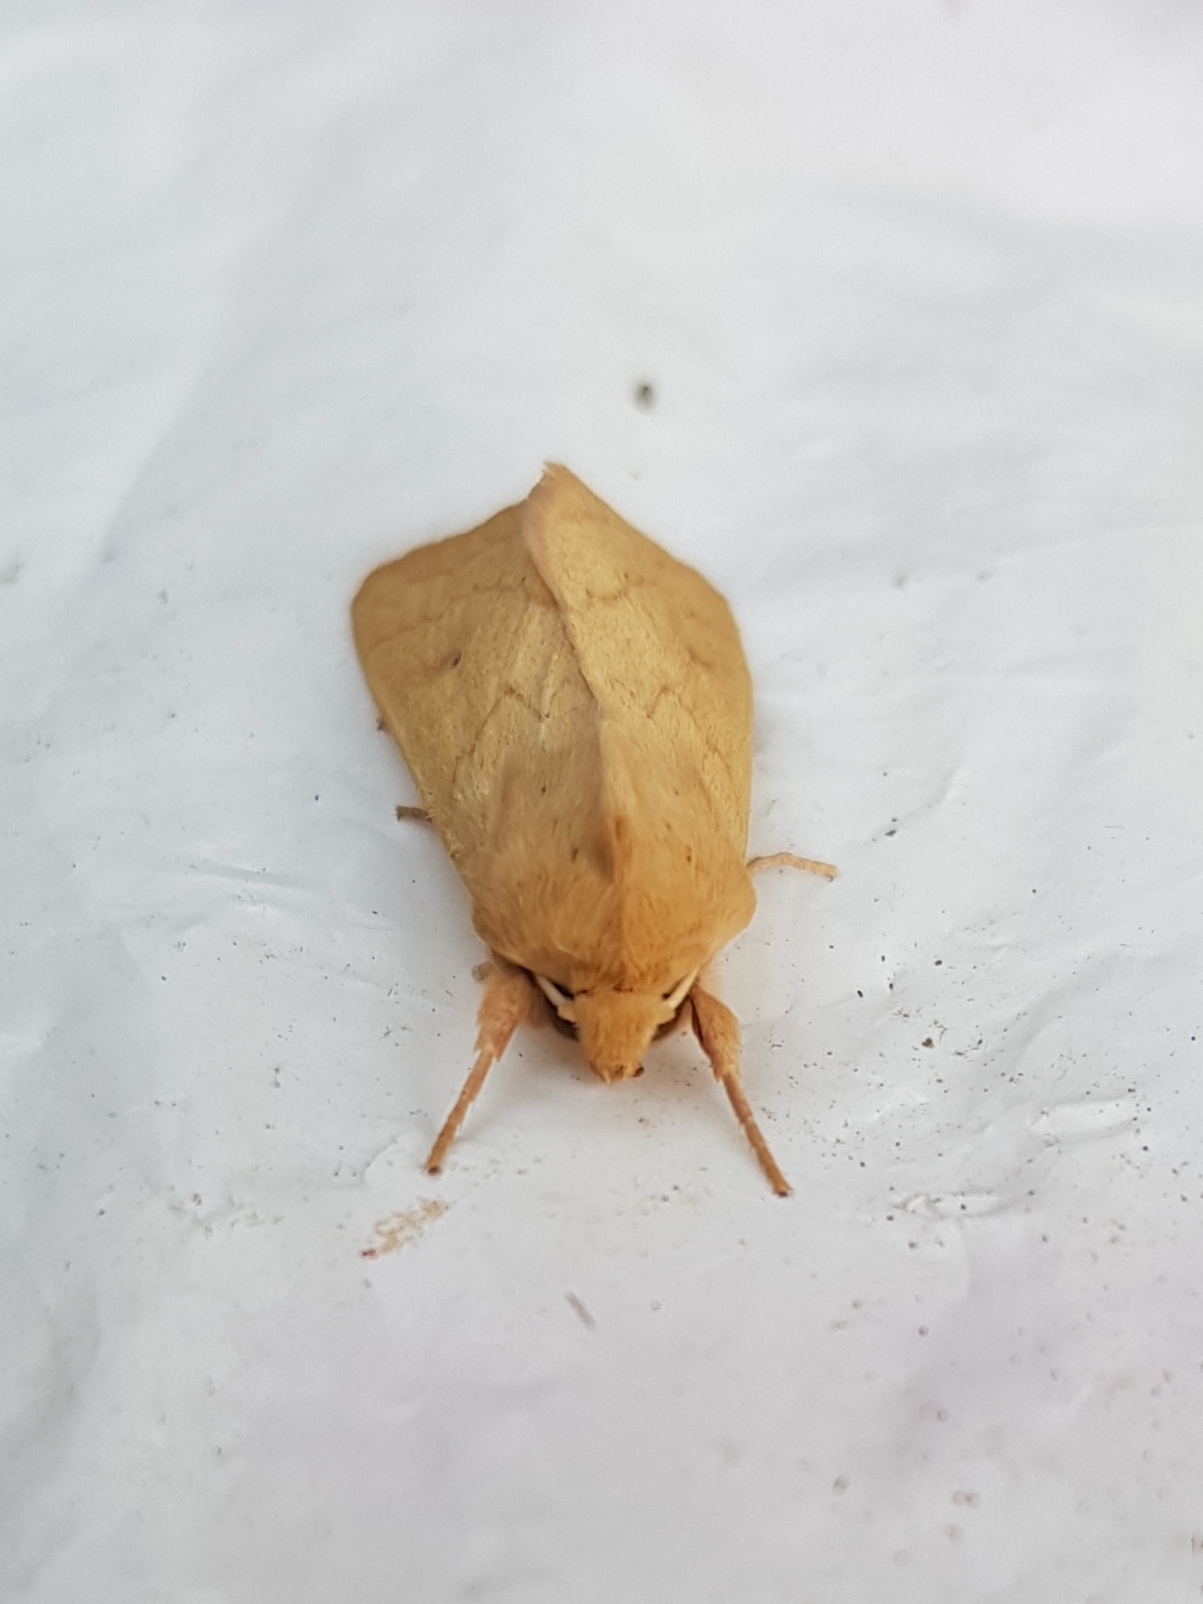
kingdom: Animalia
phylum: Arthropoda
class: Insecta
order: Lepidoptera
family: Noctuidae
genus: Mythimna
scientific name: Mythimna vitellina
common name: Delicate
